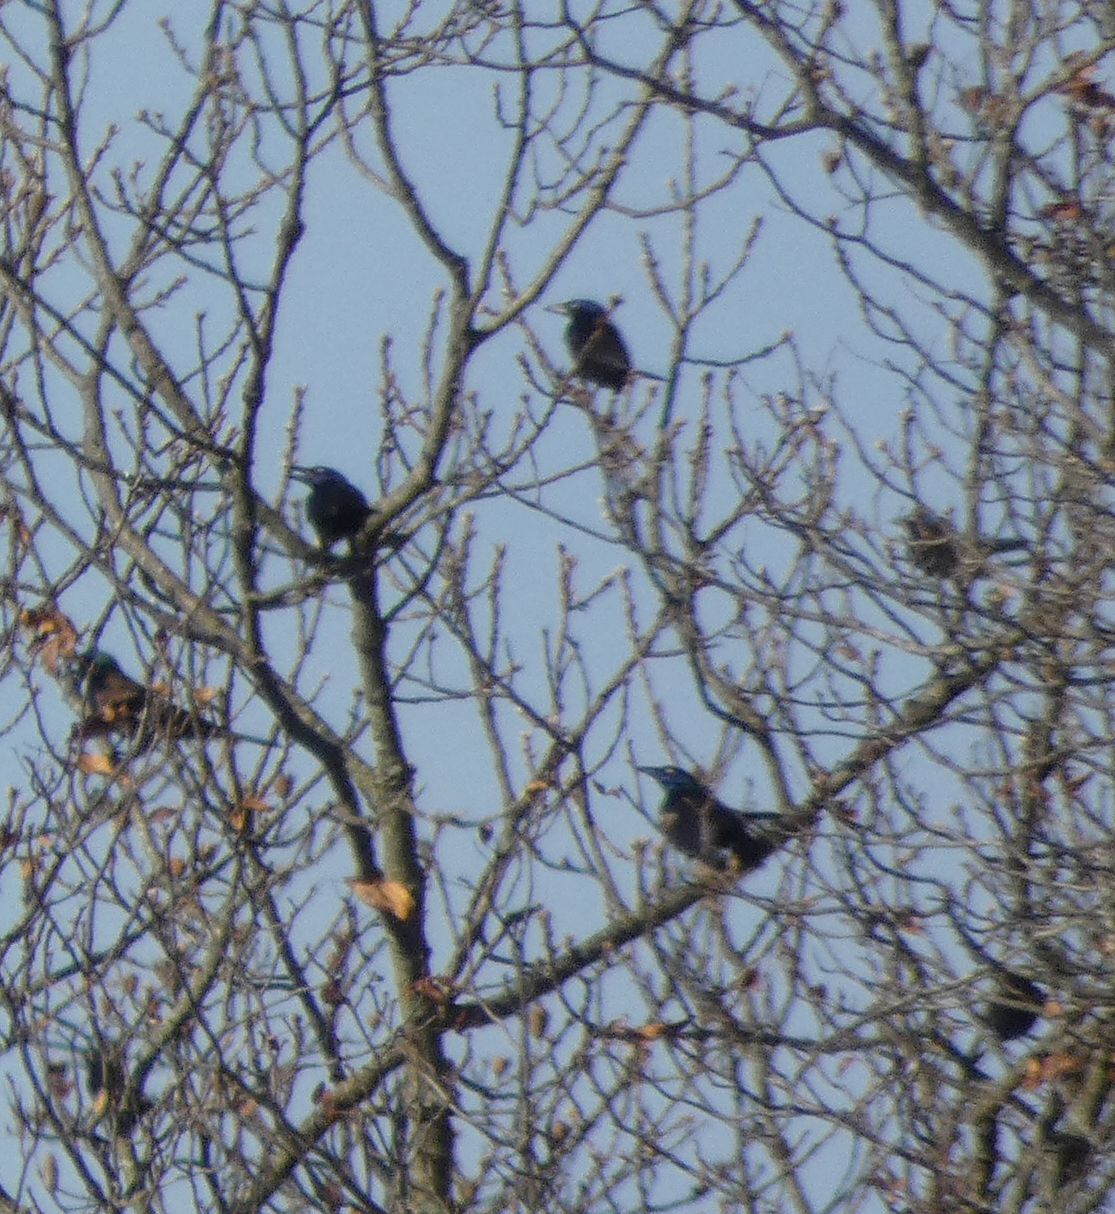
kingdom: Animalia
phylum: Chordata
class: Aves
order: Passeriformes
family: Icteridae
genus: Quiscalus
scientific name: Quiscalus quiscula
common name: Common grackle
